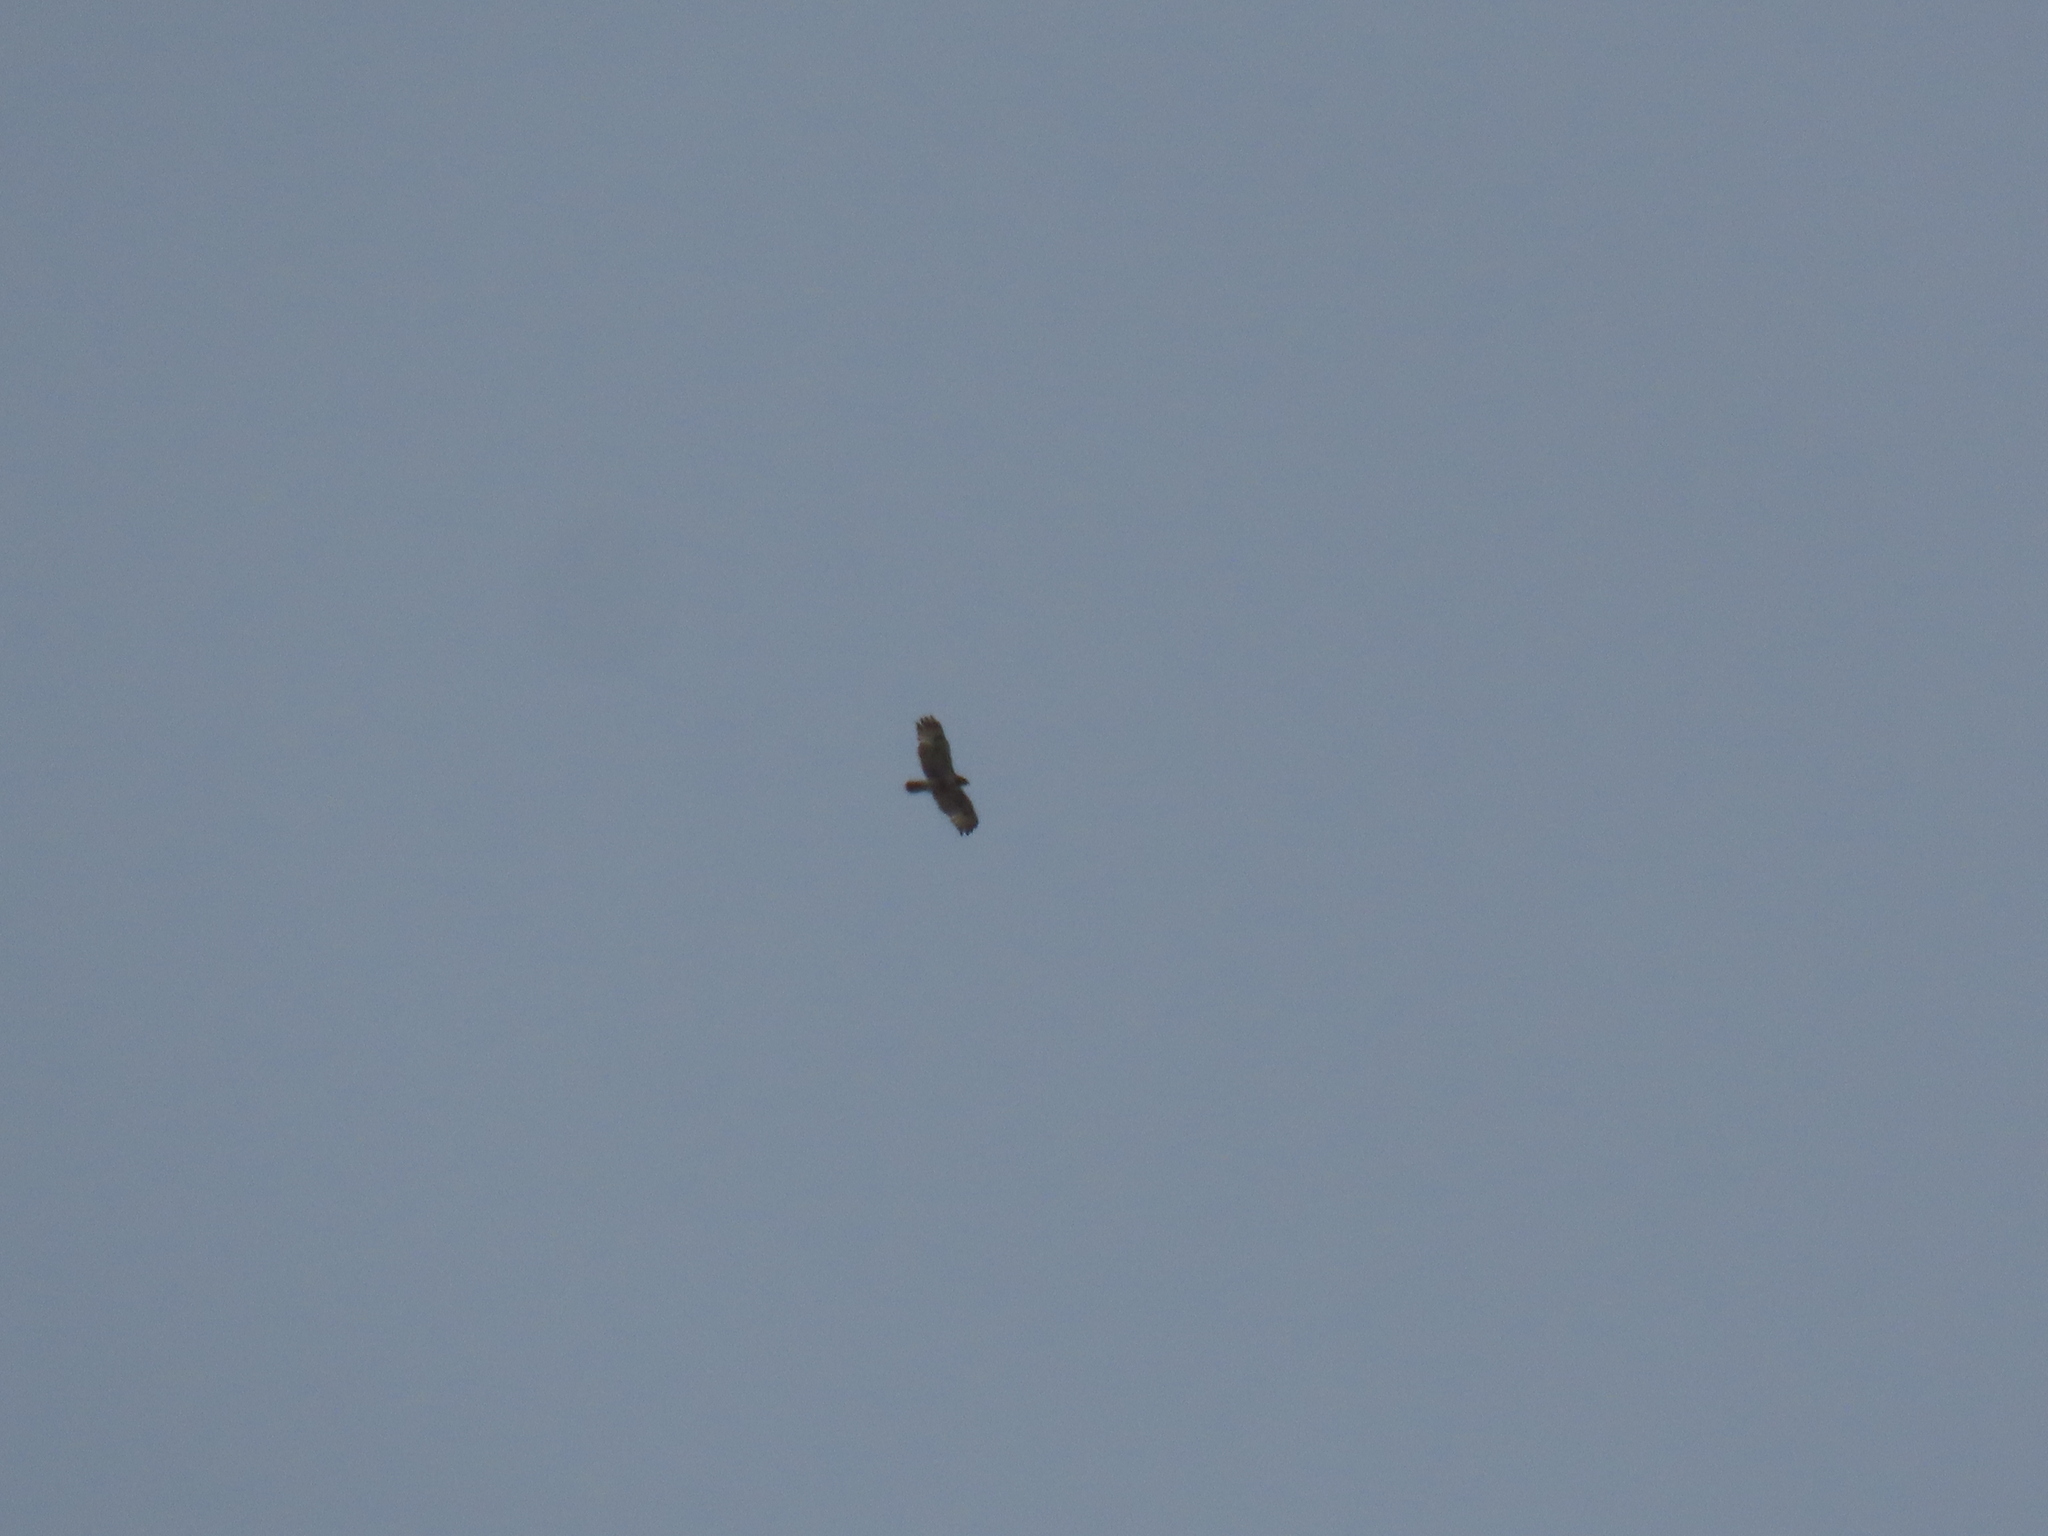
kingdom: Animalia
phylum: Chordata
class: Aves
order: Accipitriformes
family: Accipitridae
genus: Buteo
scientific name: Buteo jamaicensis
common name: Red-tailed hawk
